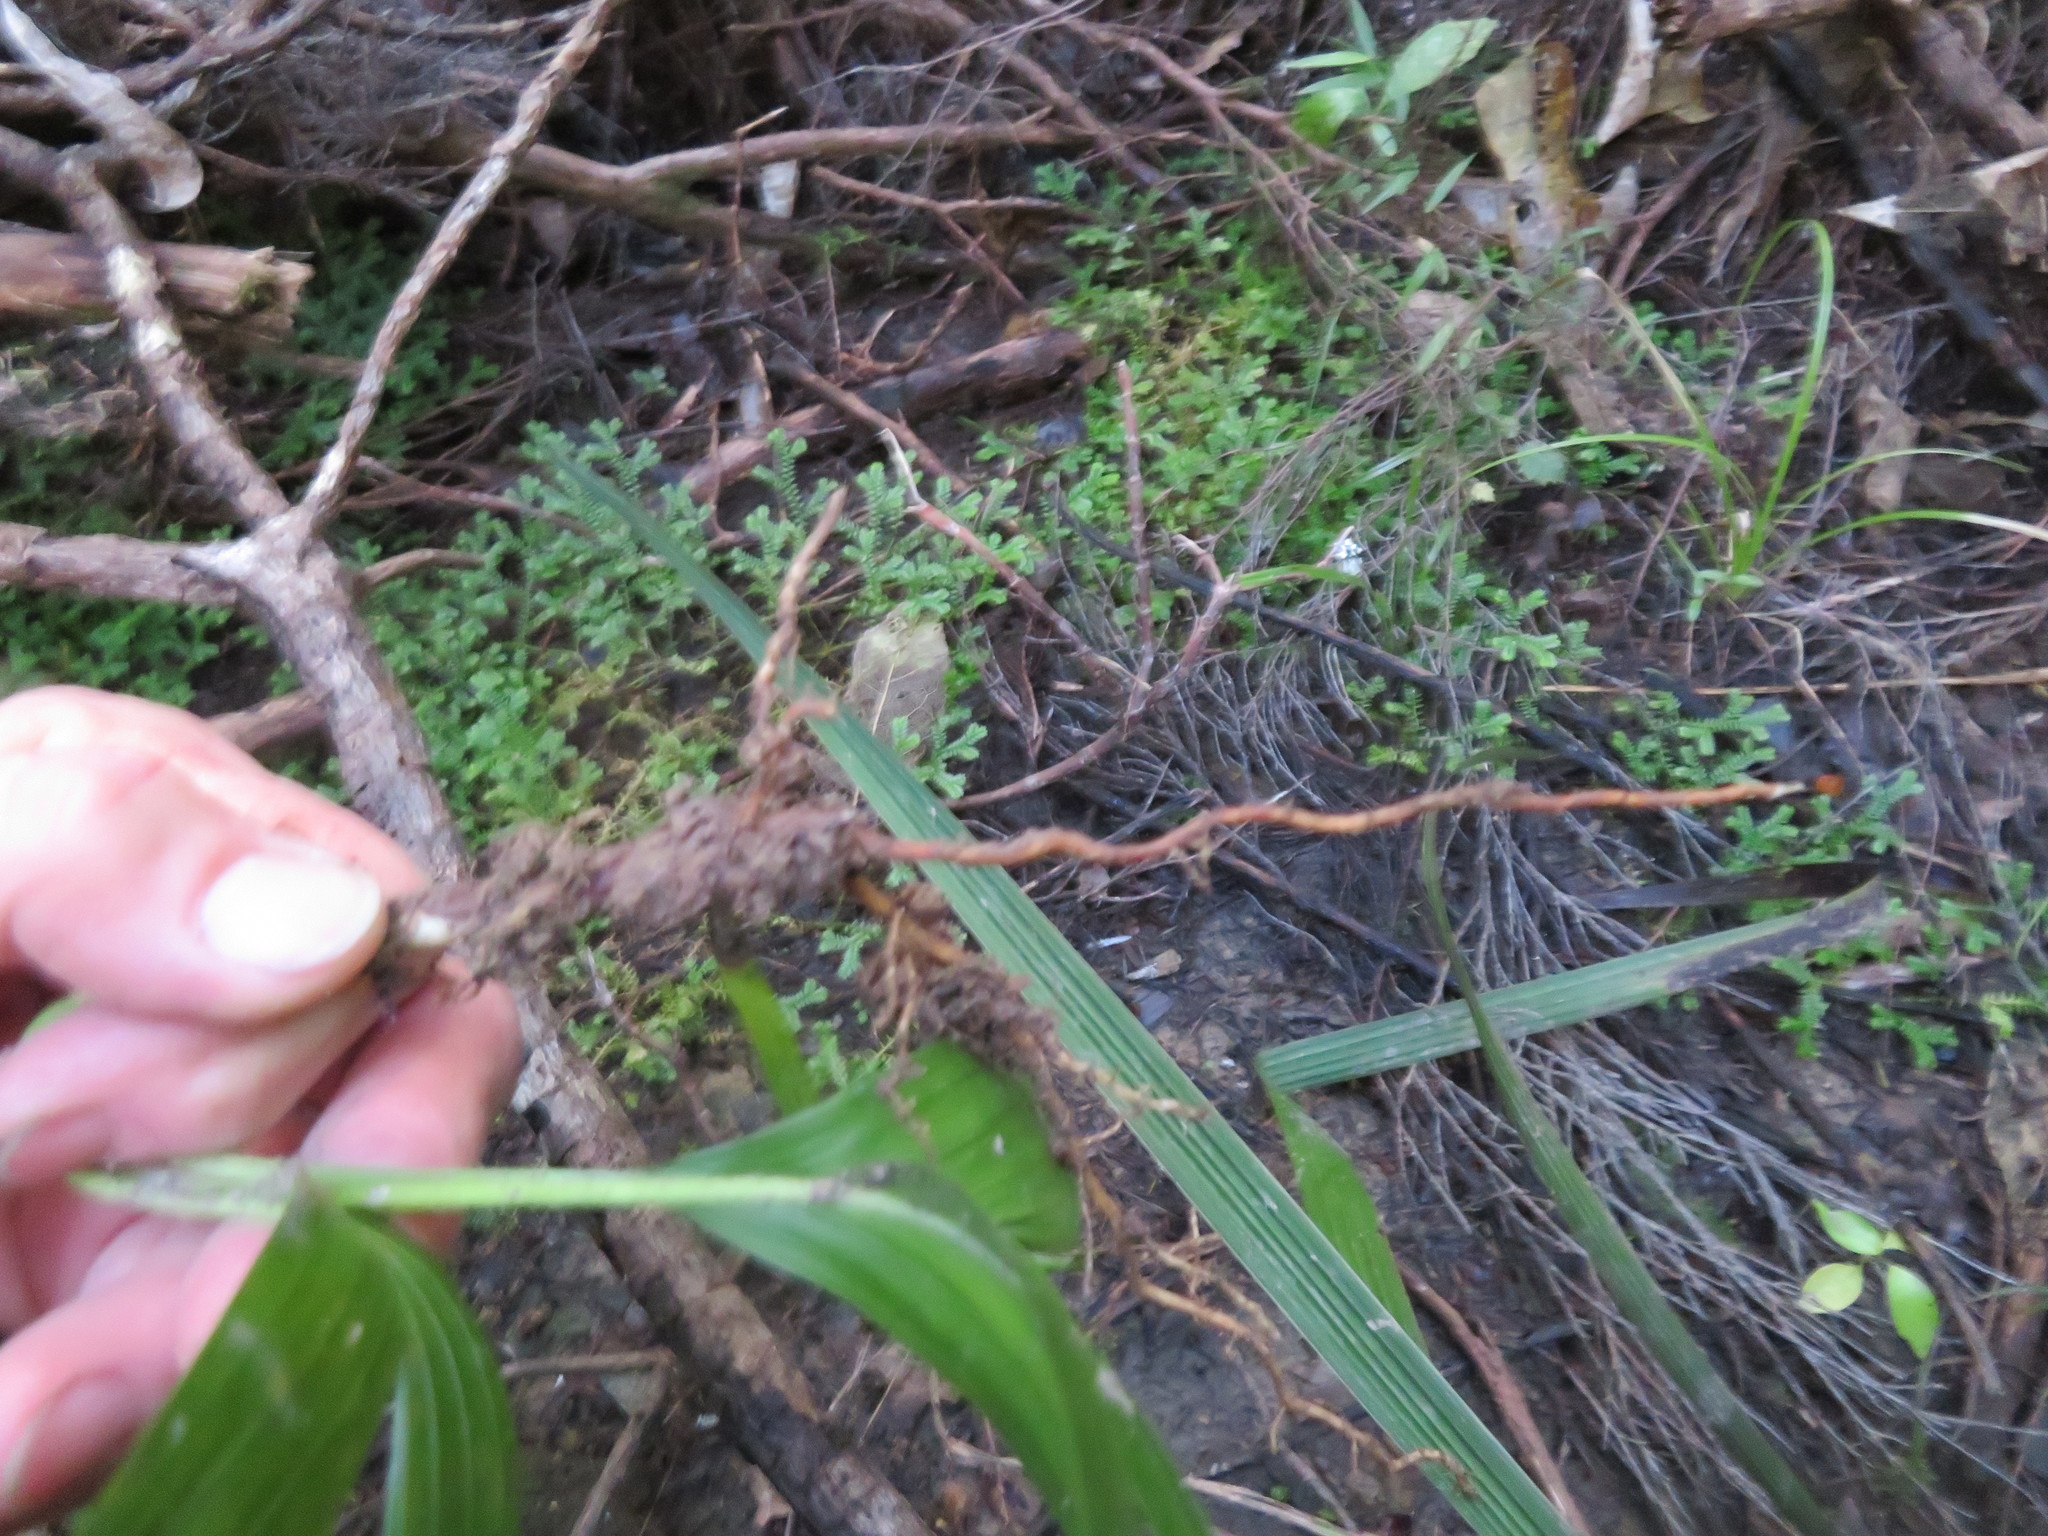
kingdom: Plantae
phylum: Tracheophyta
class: Liliopsida
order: Arecales
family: Arecaceae
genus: Archontophoenix
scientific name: Archontophoenix cunninghamiana
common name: Piccabeen bangalow palm
